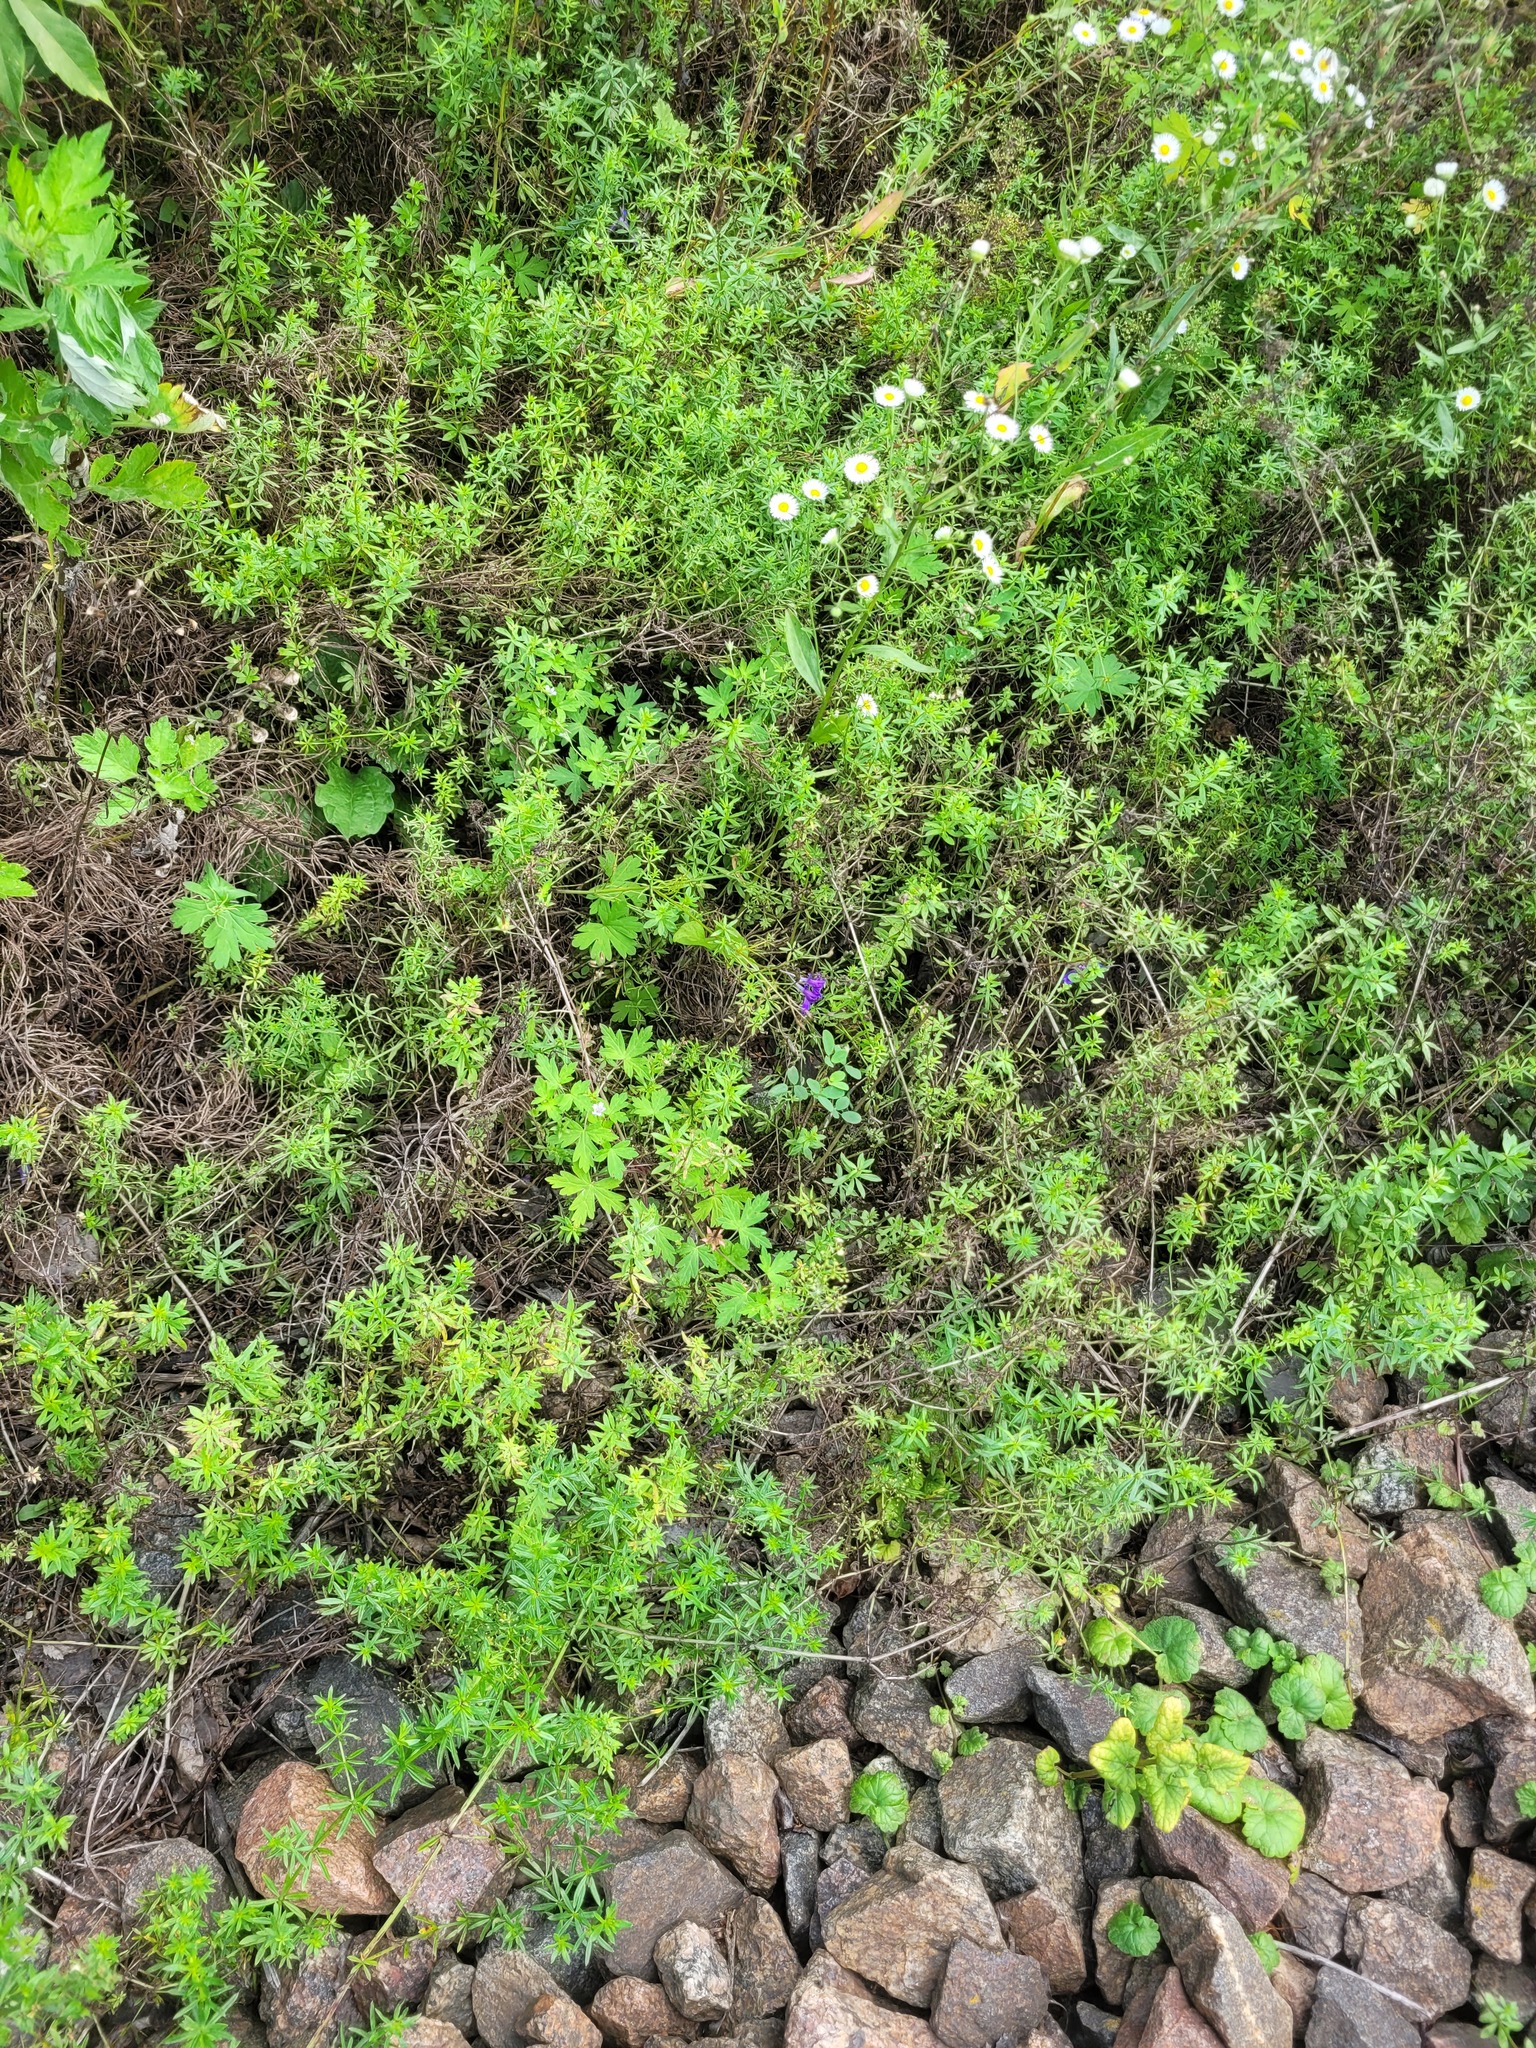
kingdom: Plantae
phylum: Tracheophyta
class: Magnoliopsida
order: Gentianales
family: Rubiaceae
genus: Galium
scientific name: Galium mollugo
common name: Hedge bedstraw
